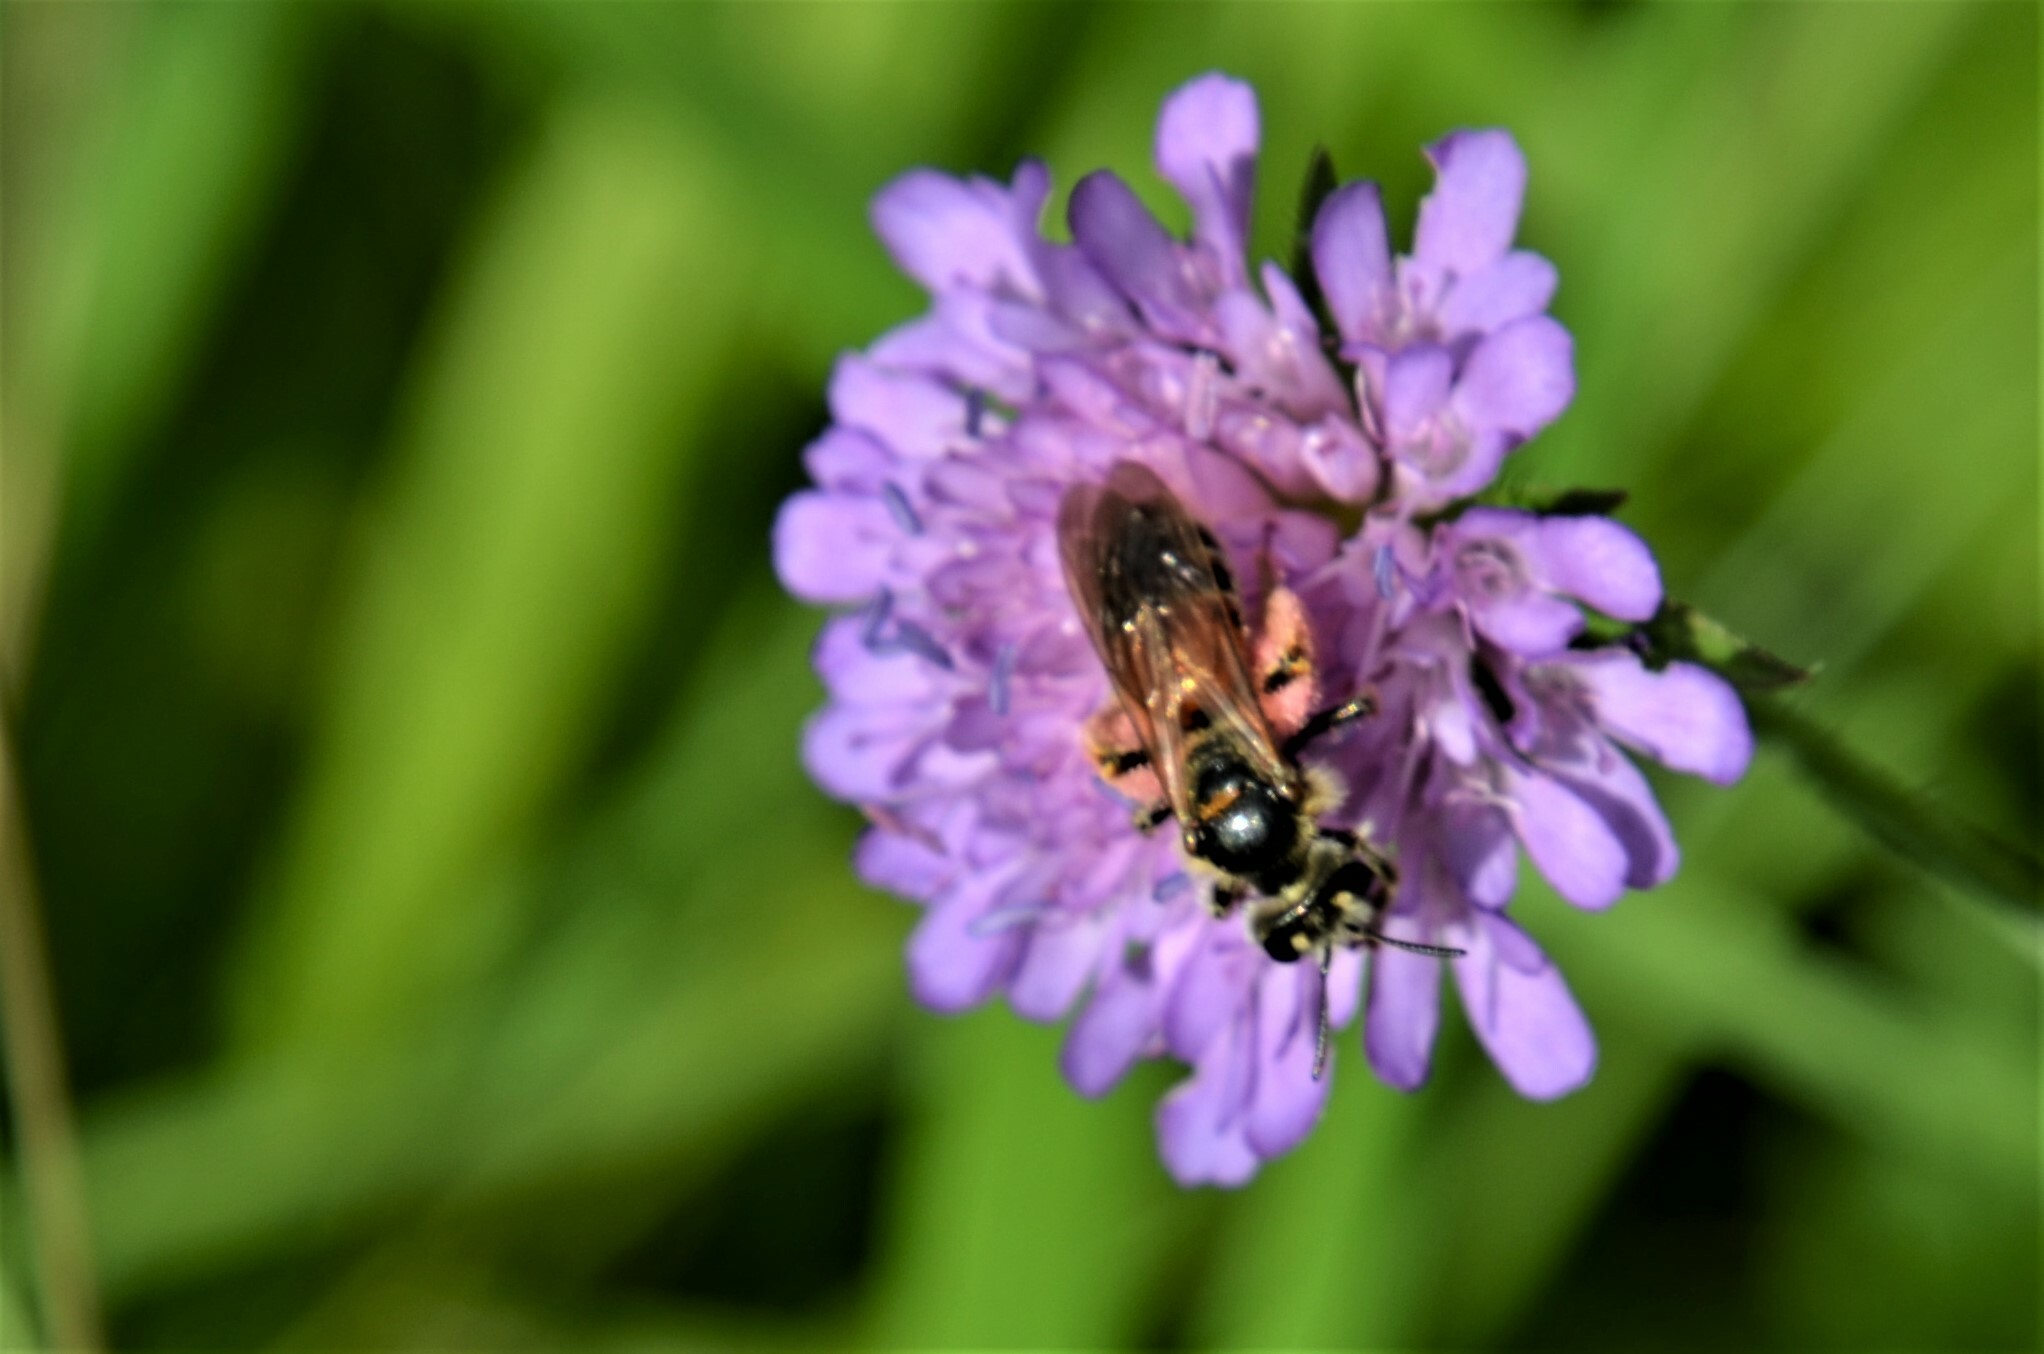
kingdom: Animalia
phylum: Arthropoda
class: Insecta
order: Hymenoptera
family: Andrenidae
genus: Andrena
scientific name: Andrena hattorfiana
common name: Large scabious mining bee
